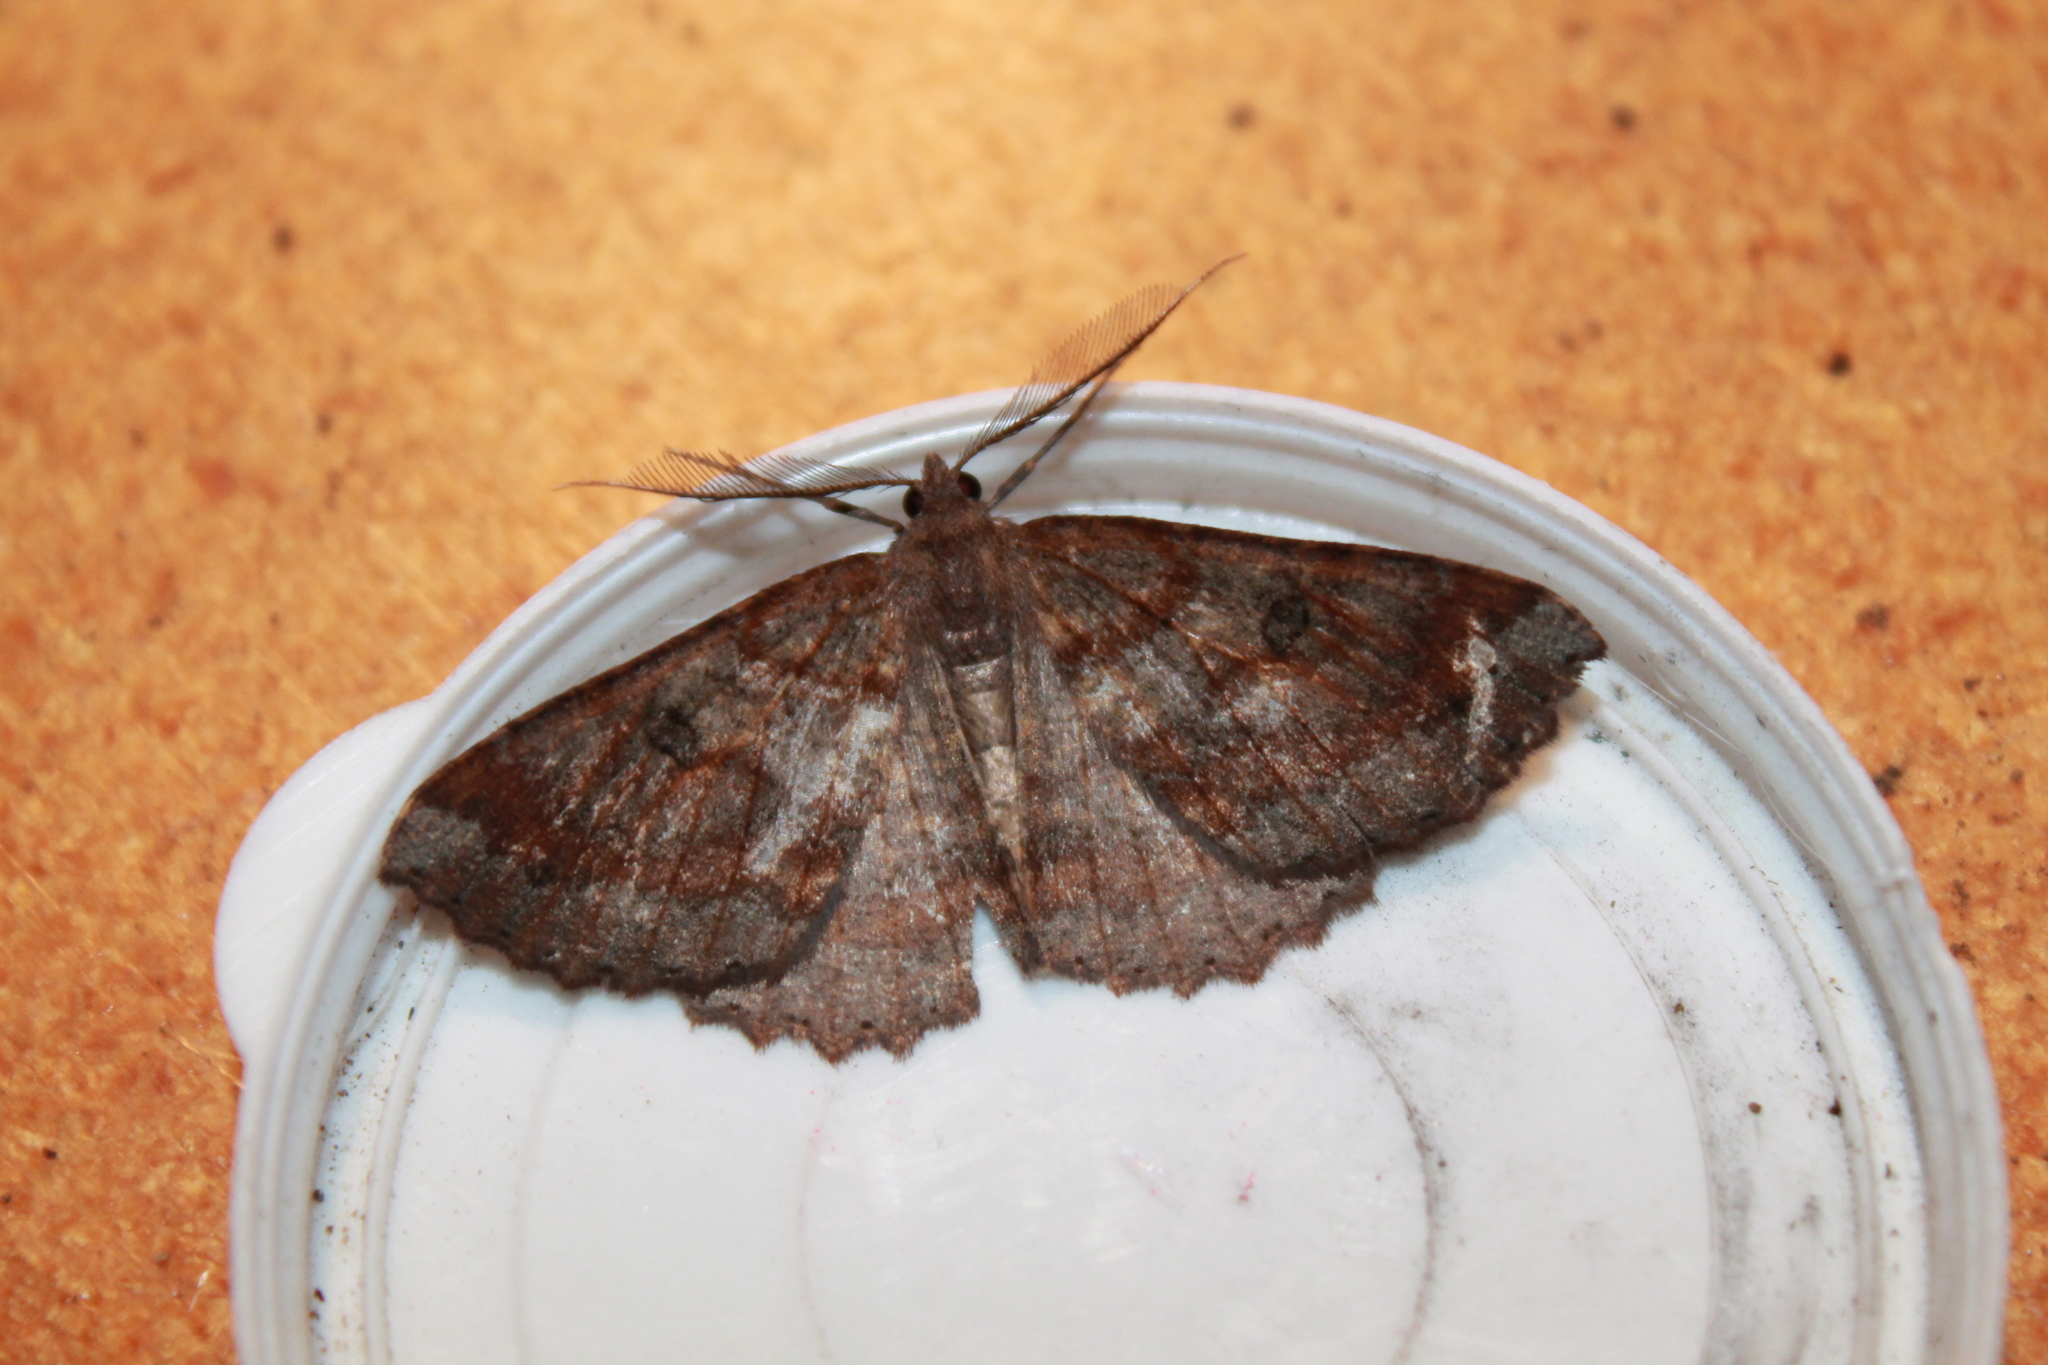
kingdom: Animalia
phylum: Arthropoda
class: Insecta
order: Lepidoptera
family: Geometridae
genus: Cleora
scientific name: Cleora scriptaria
